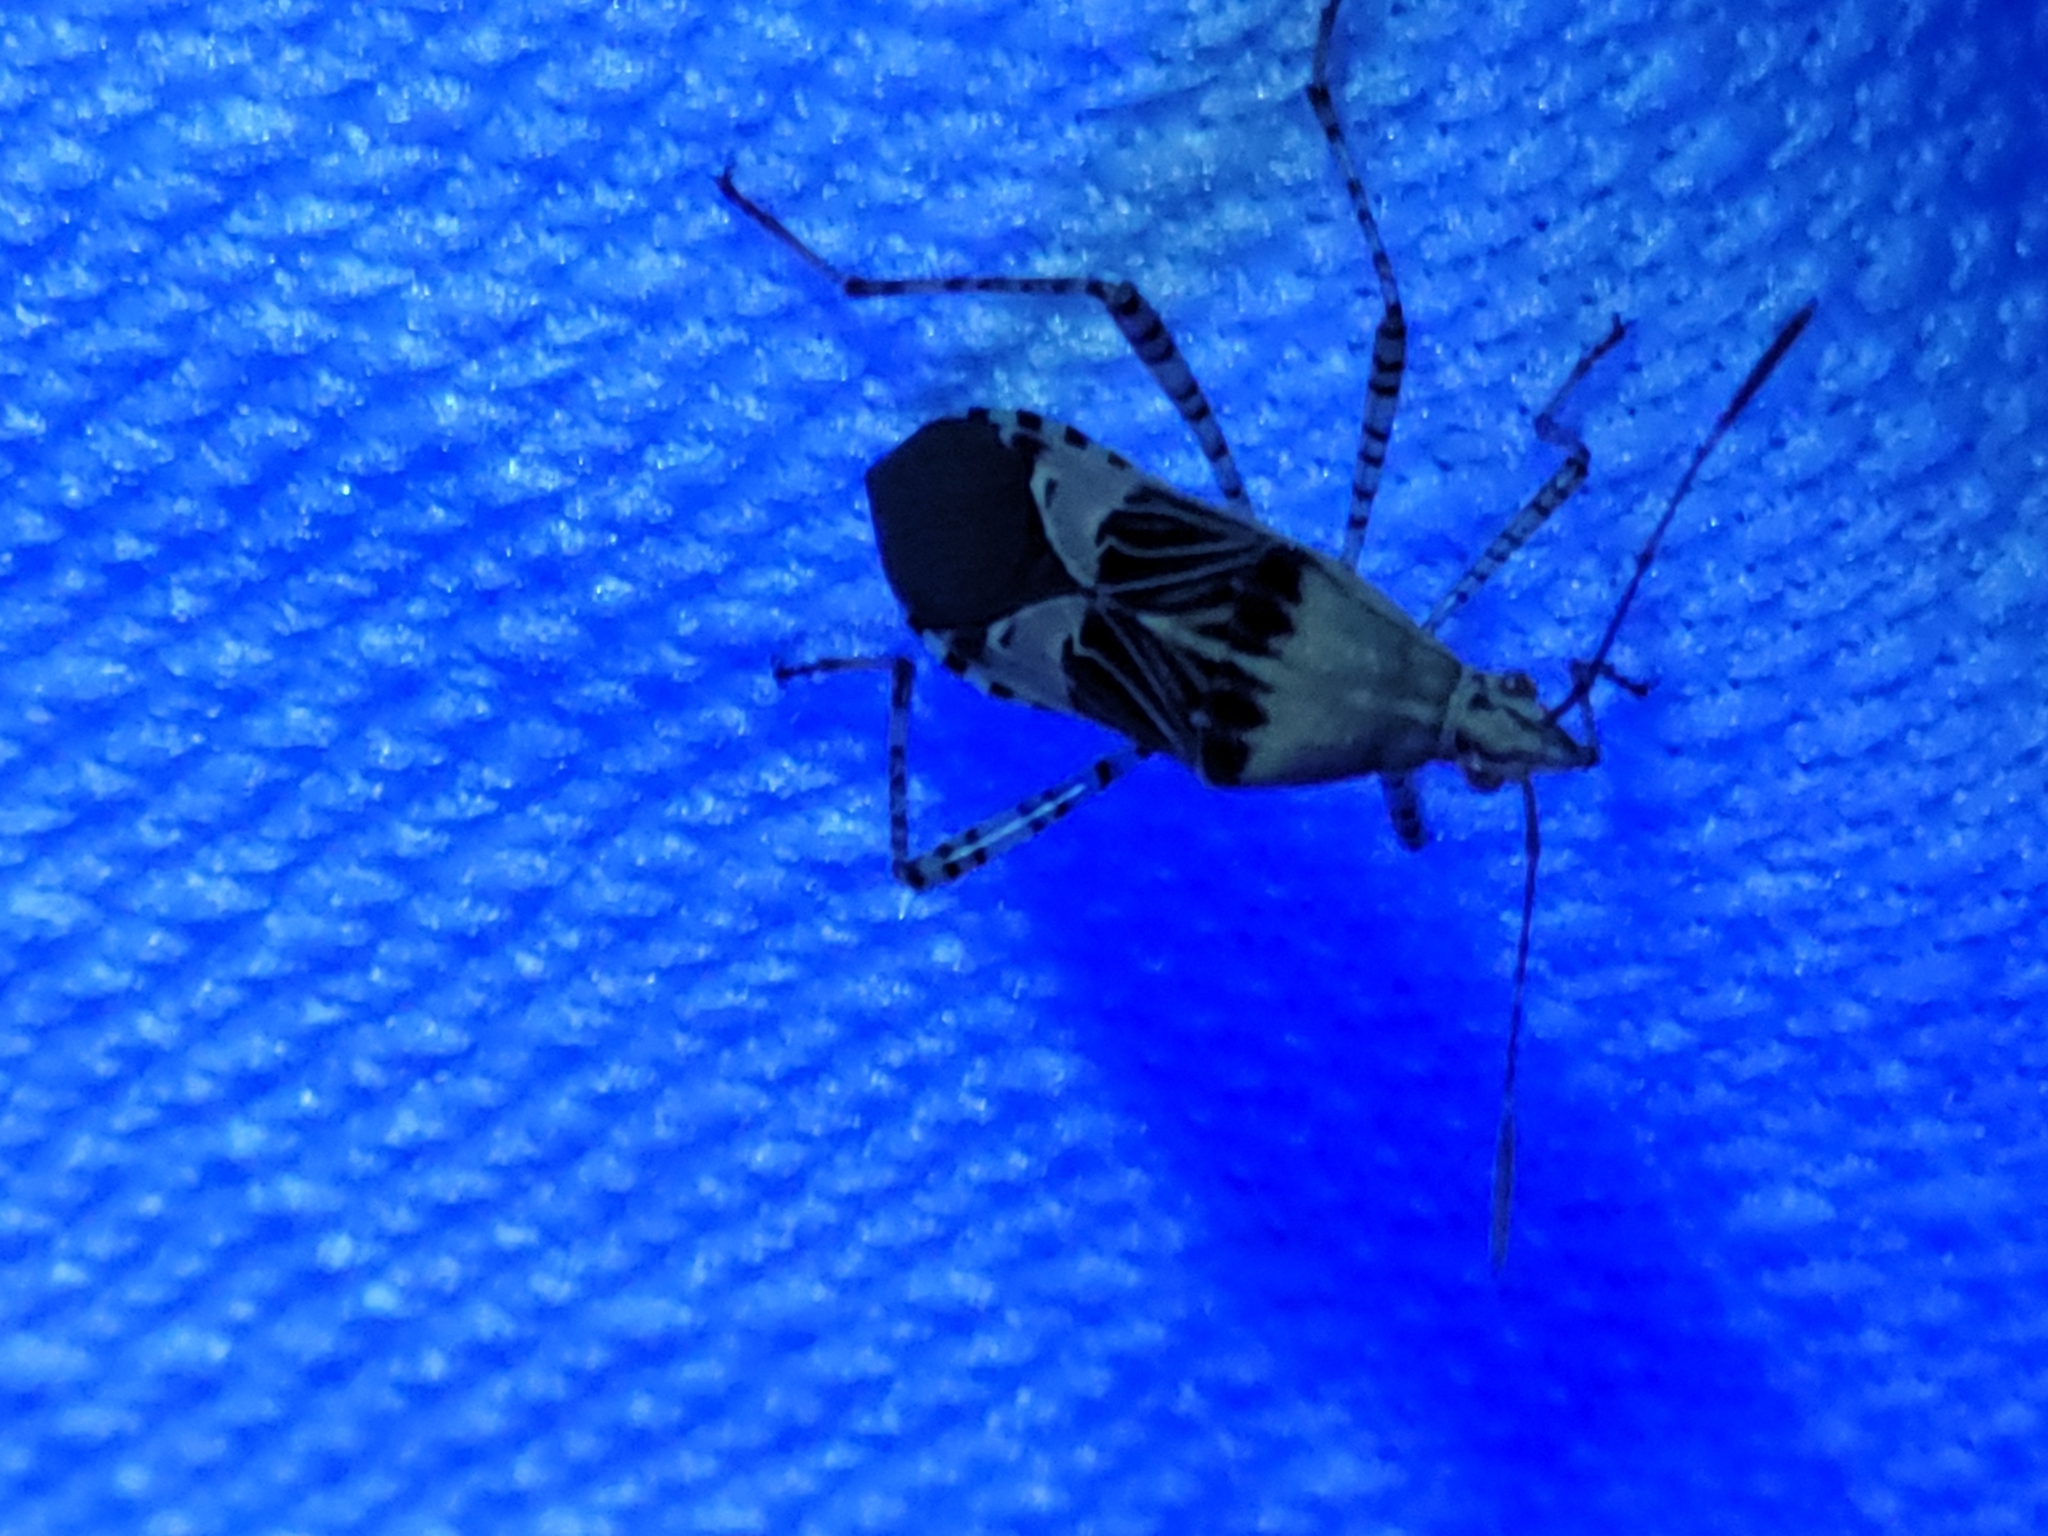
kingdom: Animalia
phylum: Arthropoda
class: Insecta
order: Hemiptera
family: Coreidae
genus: Hypselonotus
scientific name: Hypselonotus punctiventris
